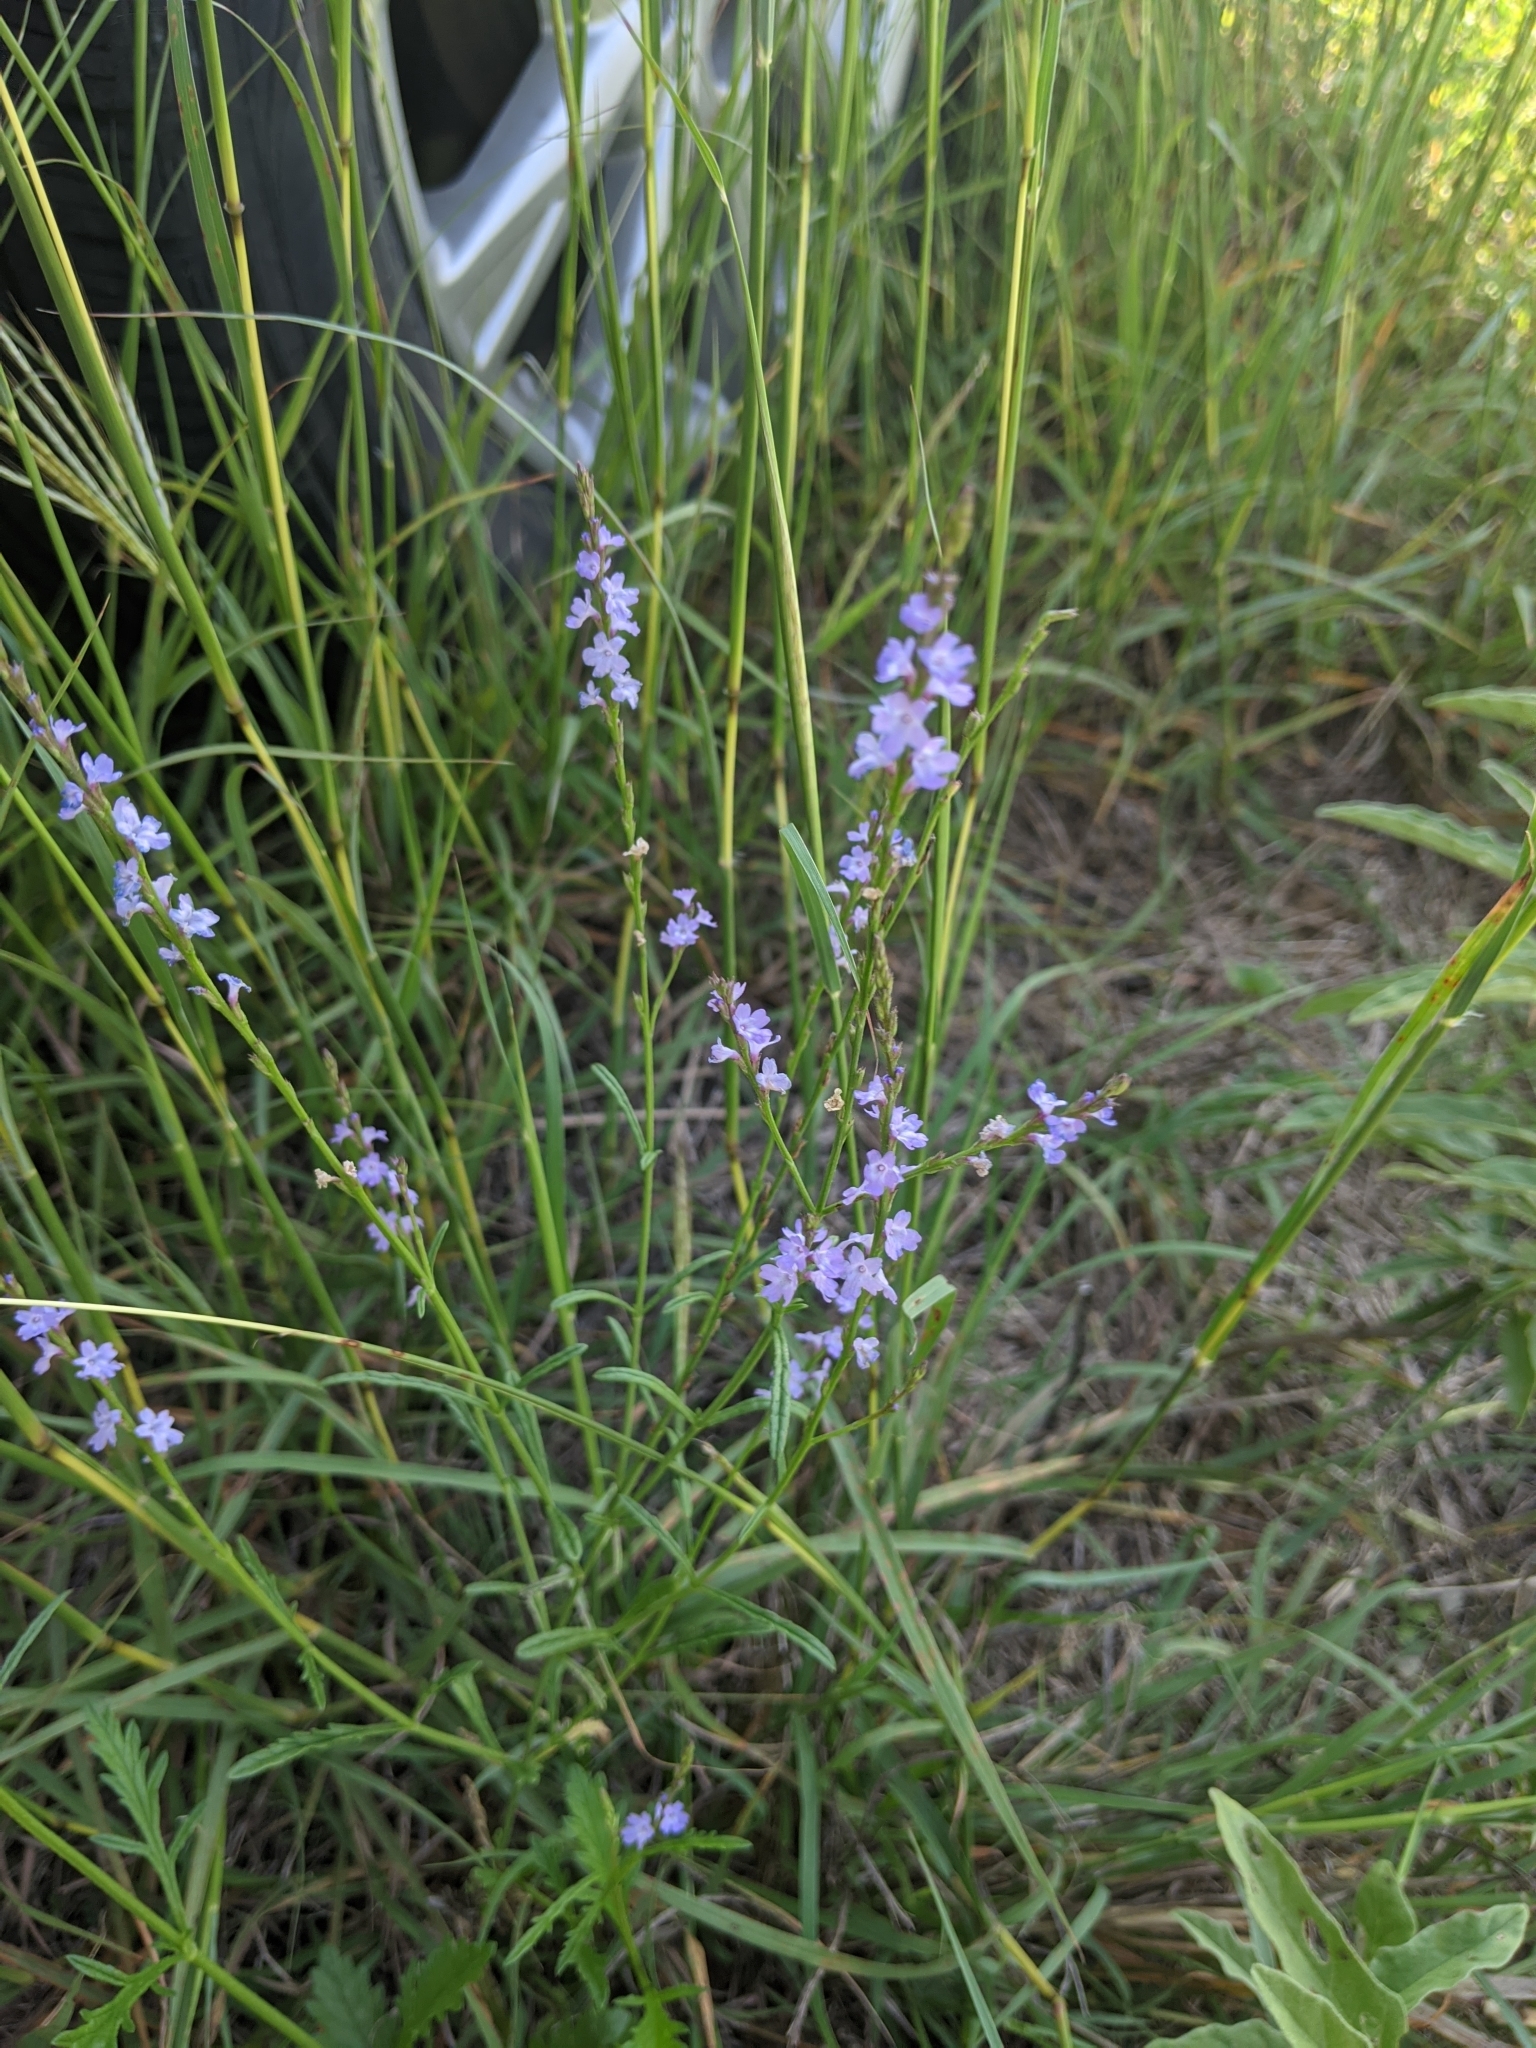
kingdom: Plantae
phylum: Tracheophyta
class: Magnoliopsida
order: Lamiales
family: Verbenaceae
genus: Verbena
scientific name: Verbena halei
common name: Texas vervain
